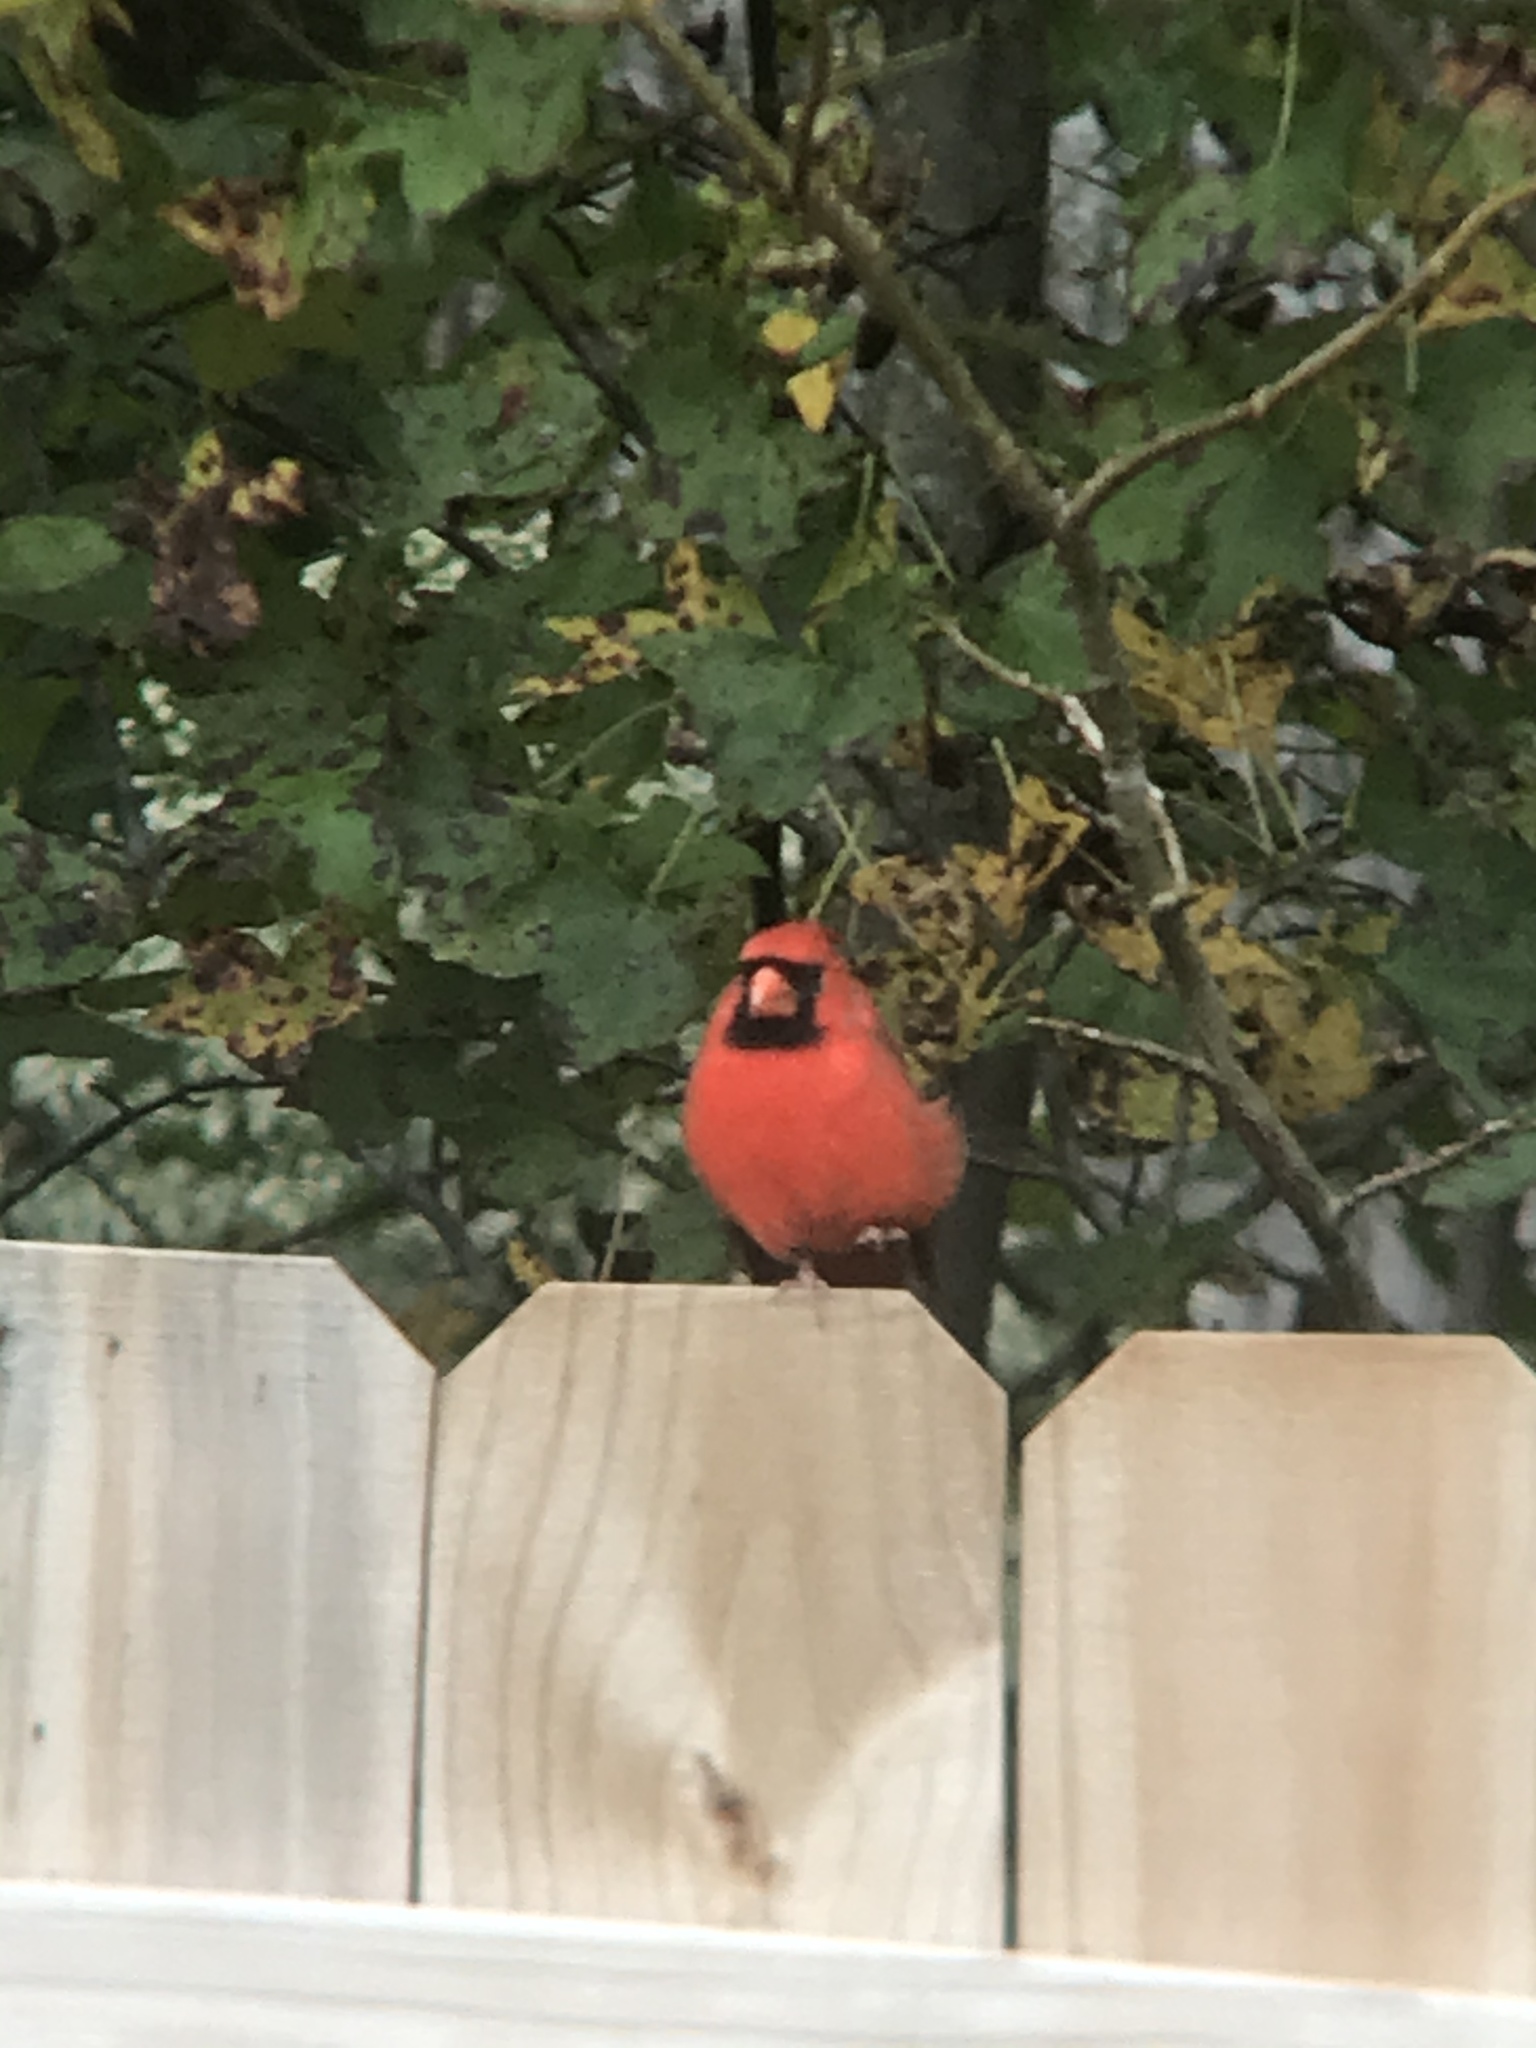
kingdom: Animalia
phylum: Chordata
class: Aves
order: Passeriformes
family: Cardinalidae
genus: Cardinalis
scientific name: Cardinalis cardinalis
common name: Northern cardinal
